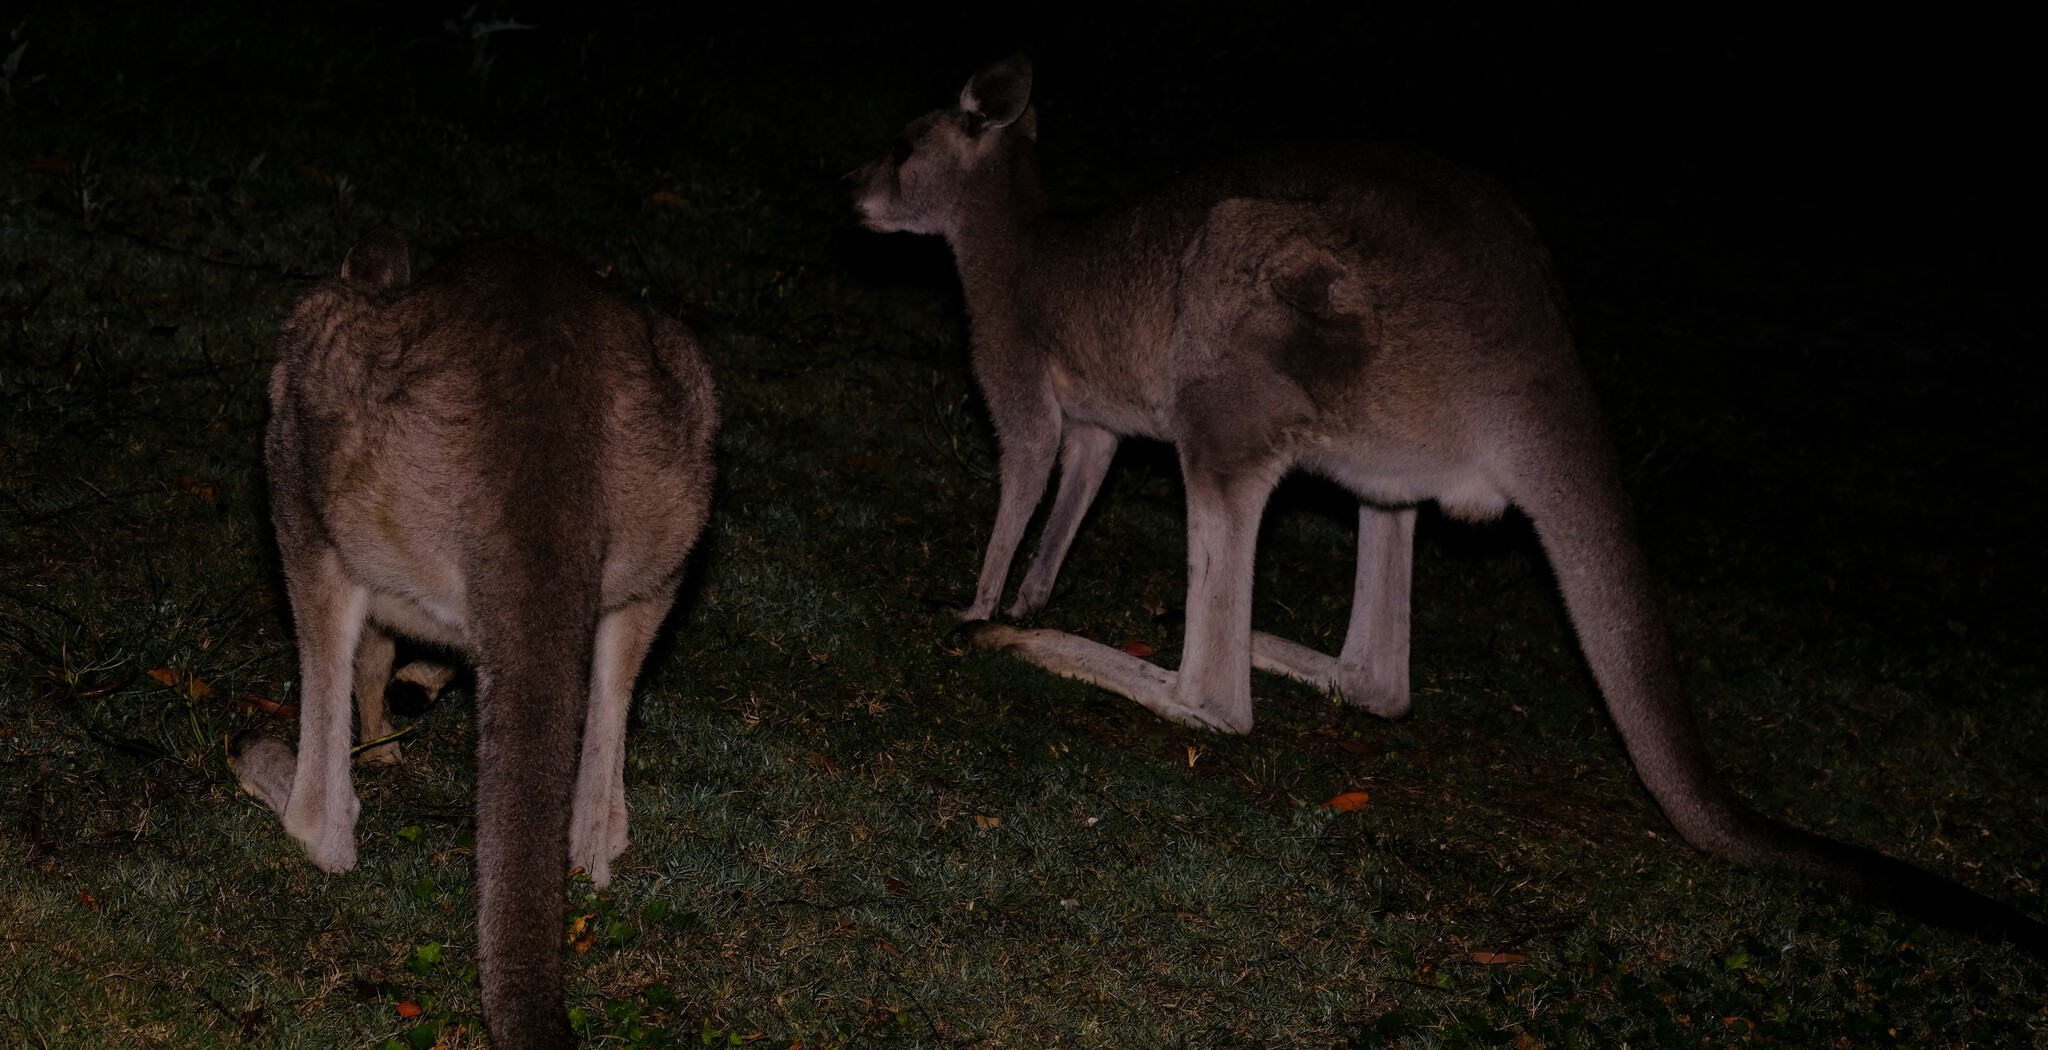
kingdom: Animalia
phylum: Chordata
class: Mammalia
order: Diprotodontia
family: Macropodidae
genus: Macropus
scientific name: Macropus giganteus
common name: Eastern grey kangaroo
